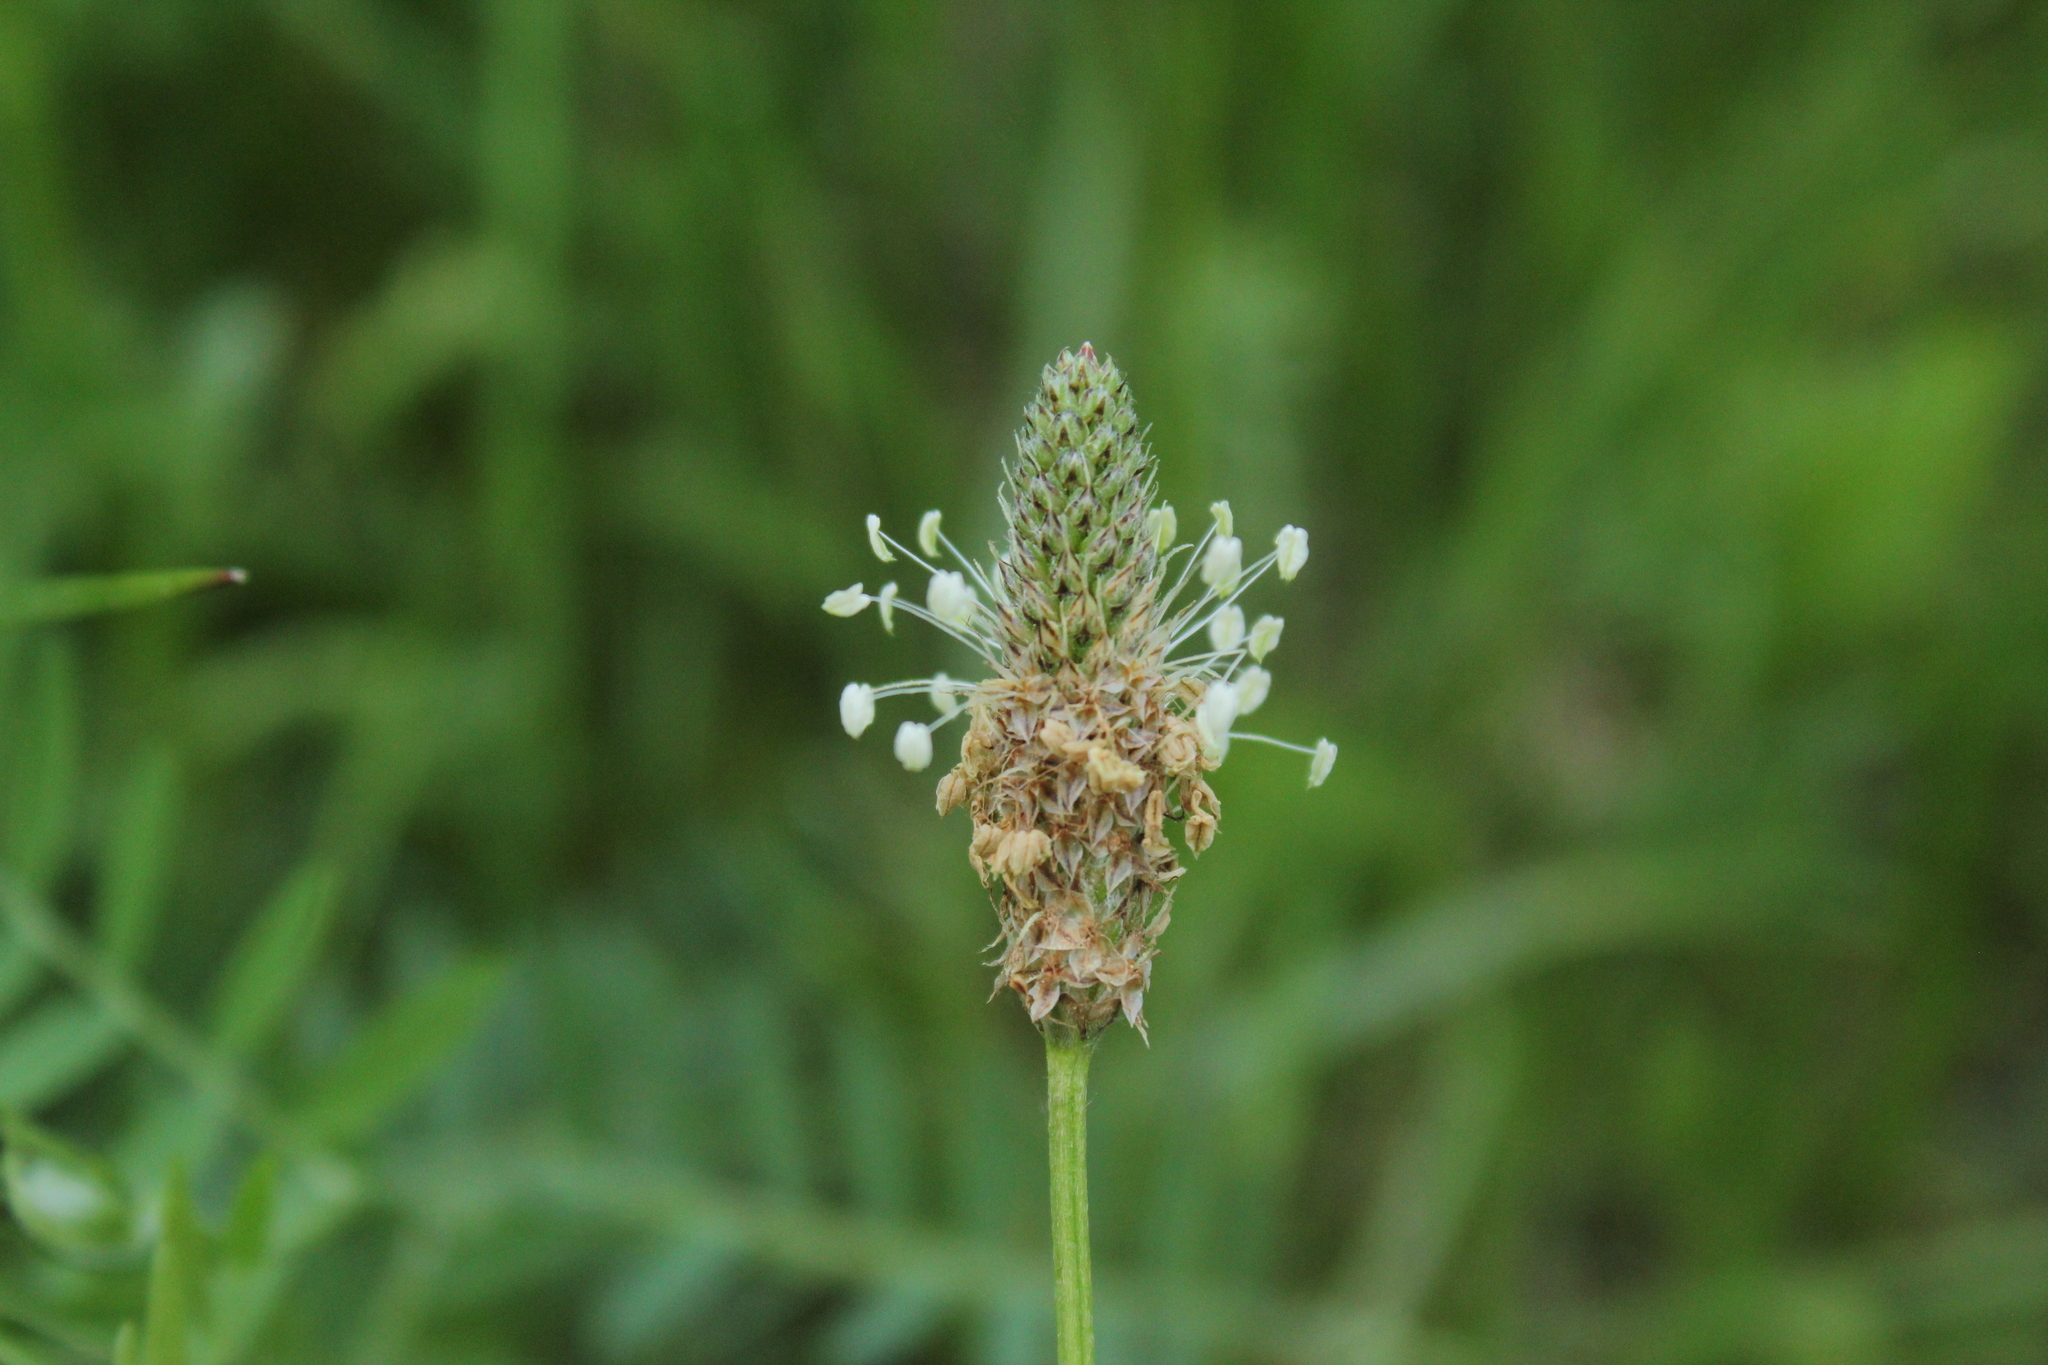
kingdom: Plantae
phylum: Tracheophyta
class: Magnoliopsida
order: Lamiales
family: Plantaginaceae
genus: Plantago
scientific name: Plantago lanceolata
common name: Ribwort plantain
